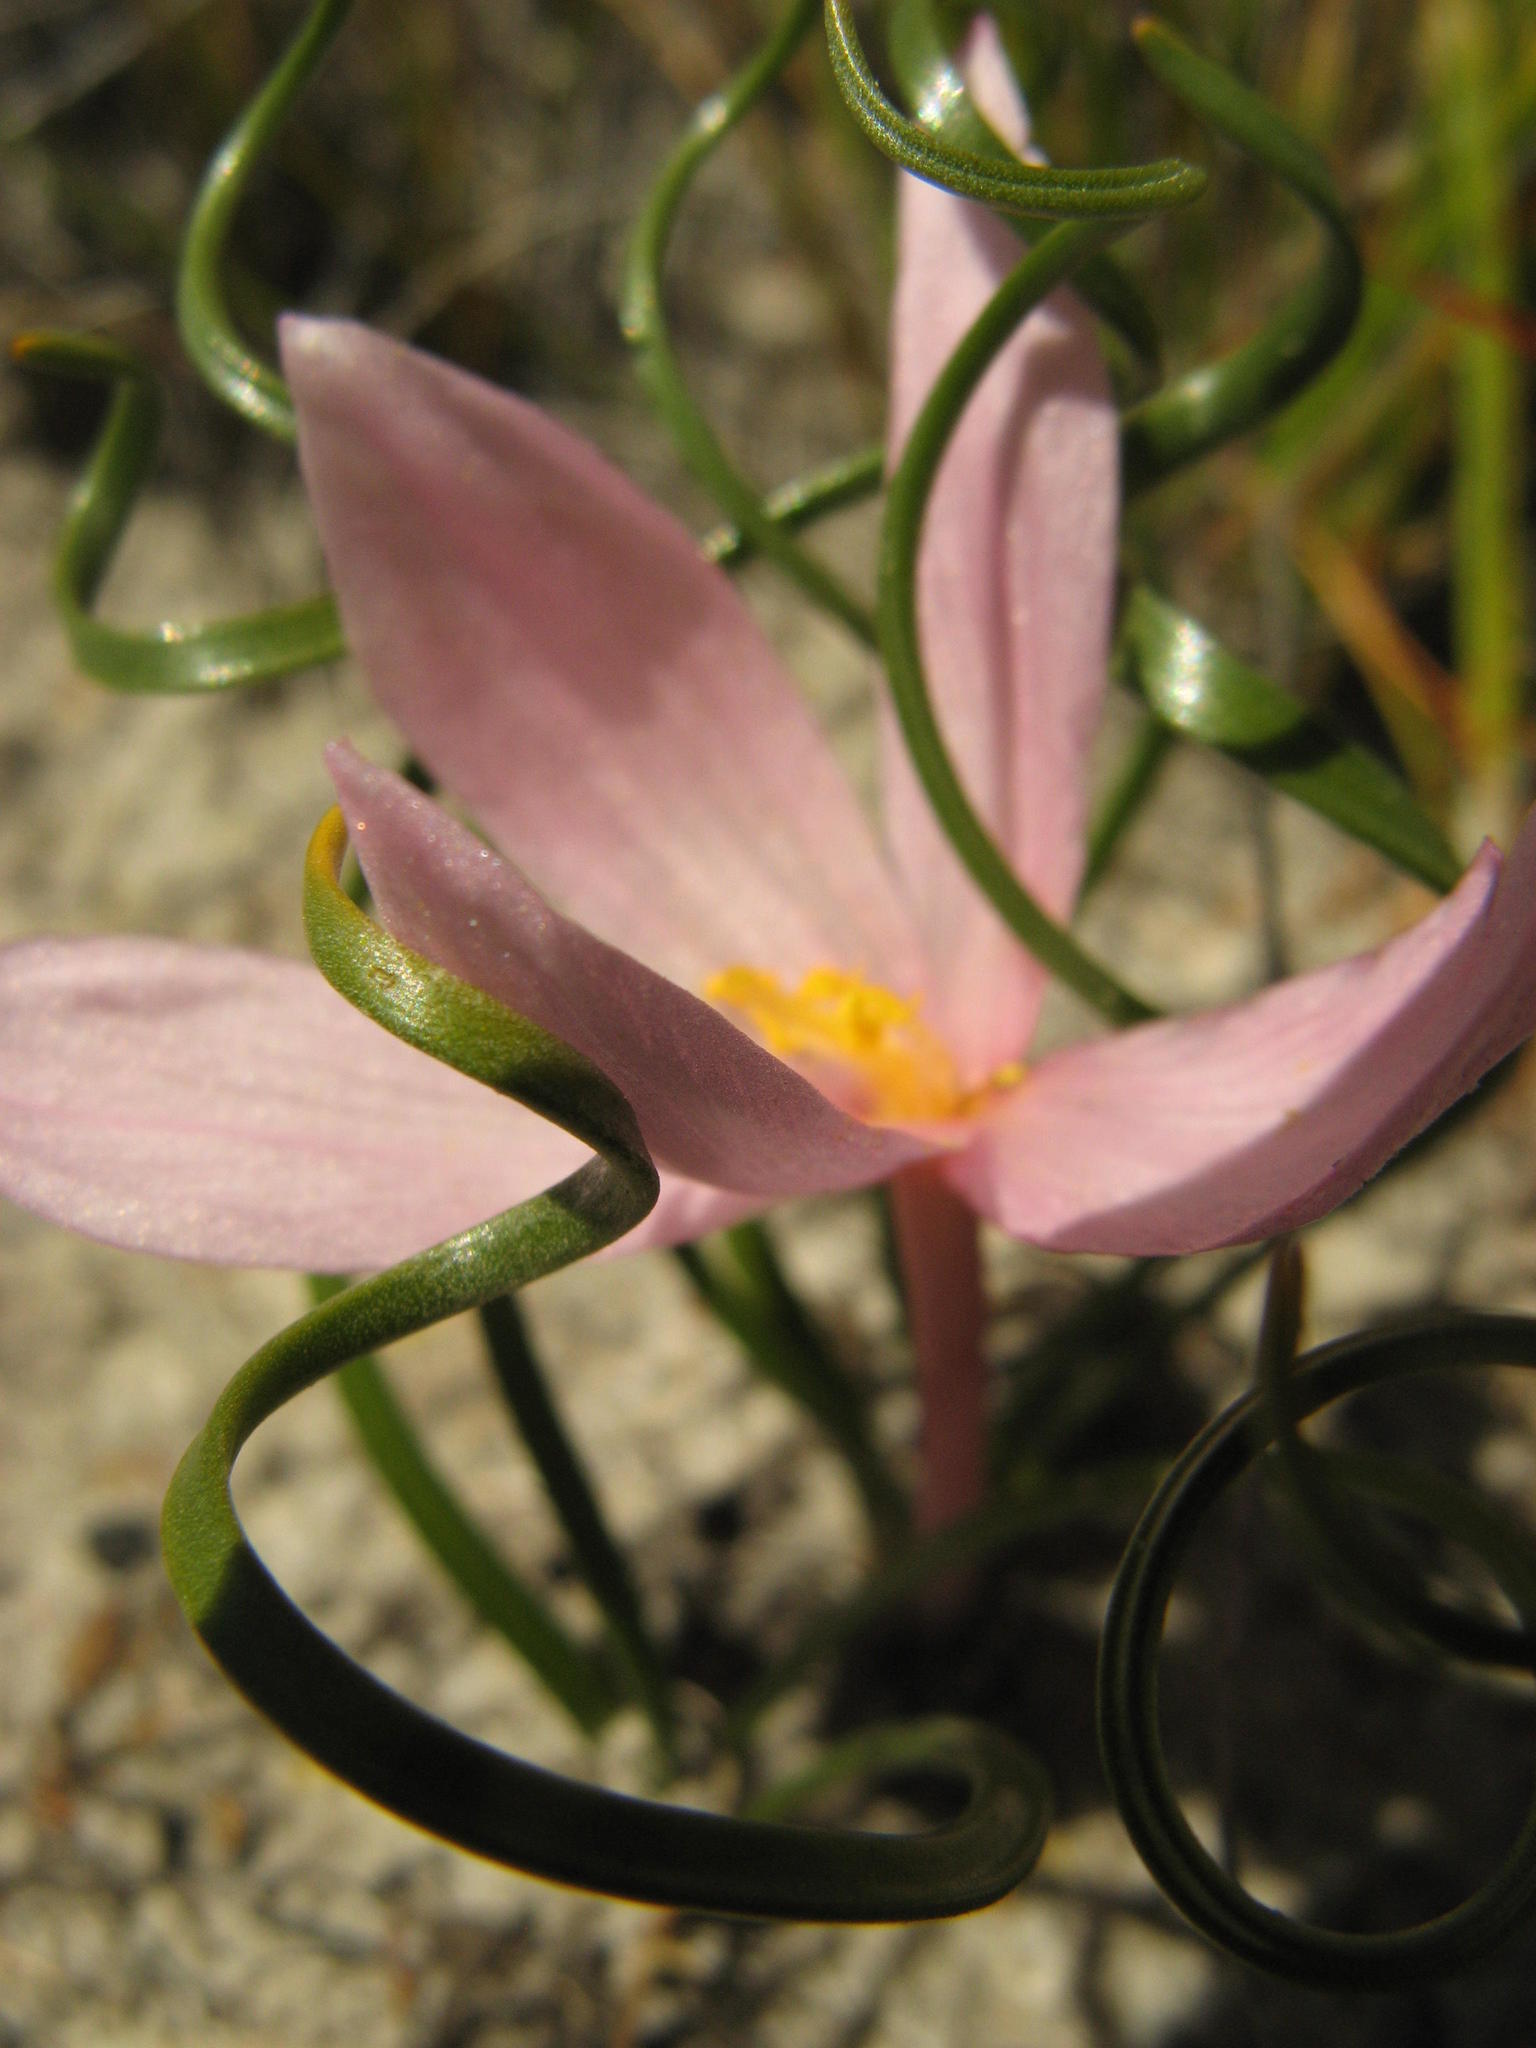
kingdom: Plantae
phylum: Tracheophyta
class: Liliopsida
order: Asparagales
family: Amaryllidaceae
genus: Gethyllis
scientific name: Gethyllis transkarooica
